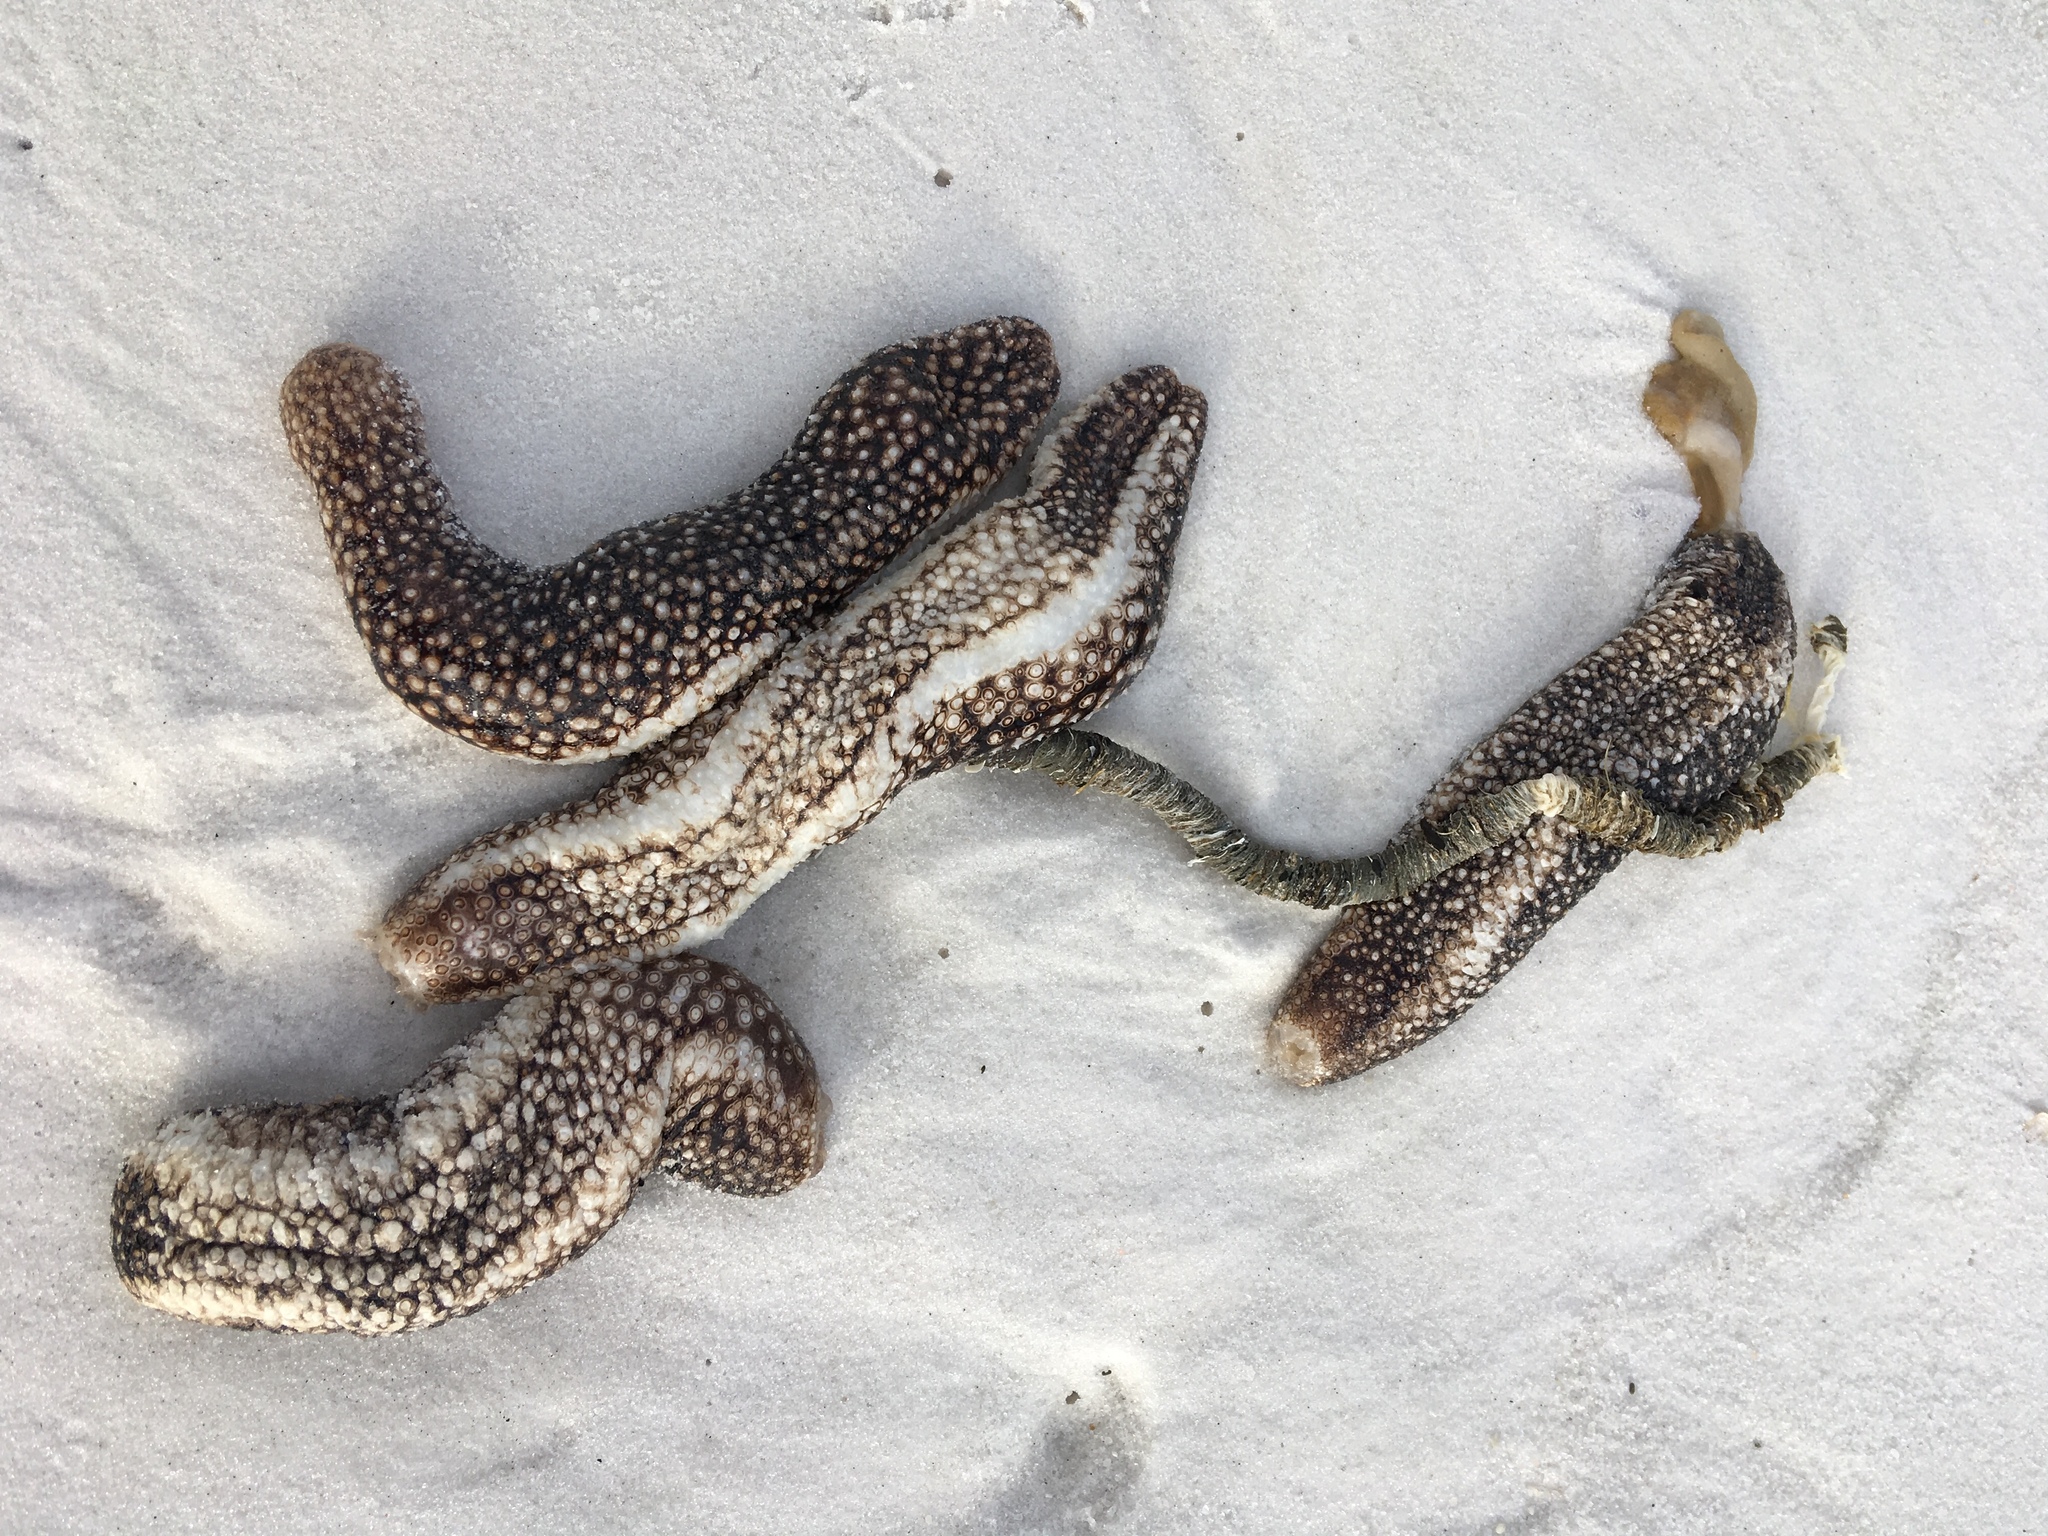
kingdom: Animalia
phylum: Echinodermata
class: Holothuroidea
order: Holothuriida
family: Holothuriidae
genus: Holothuria
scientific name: Holothuria princeps
